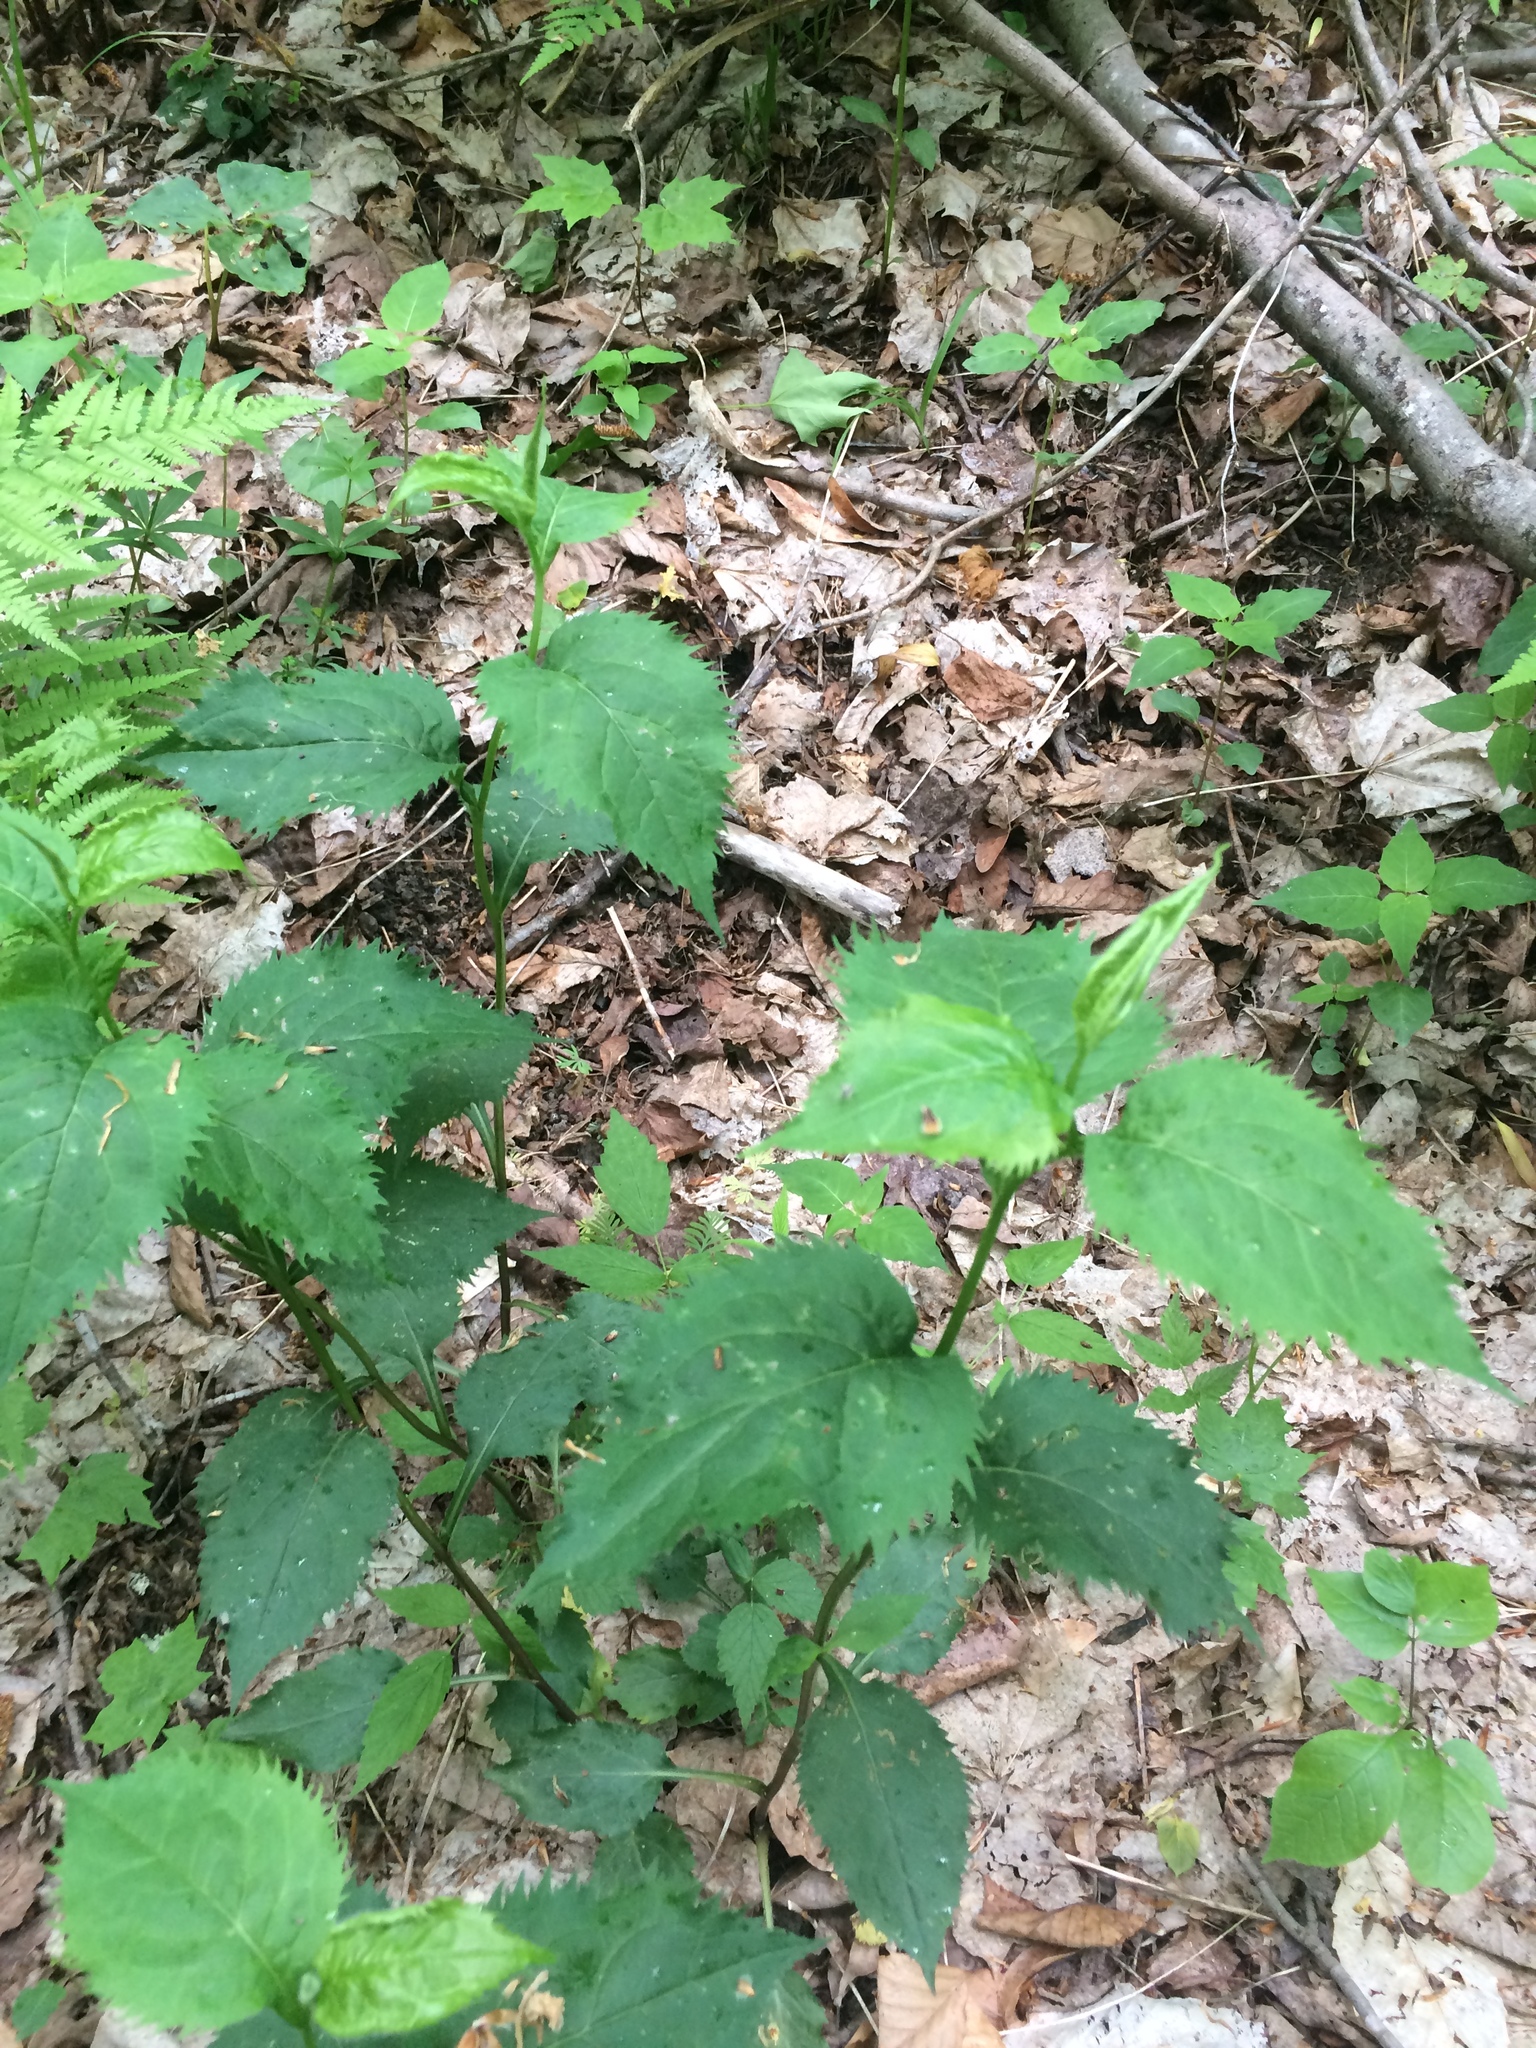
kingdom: Plantae
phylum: Tracheophyta
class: Magnoliopsida
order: Asterales
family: Asteraceae
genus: Solidago
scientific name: Solidago flexicaulis
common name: Zig-zag goldenrod
